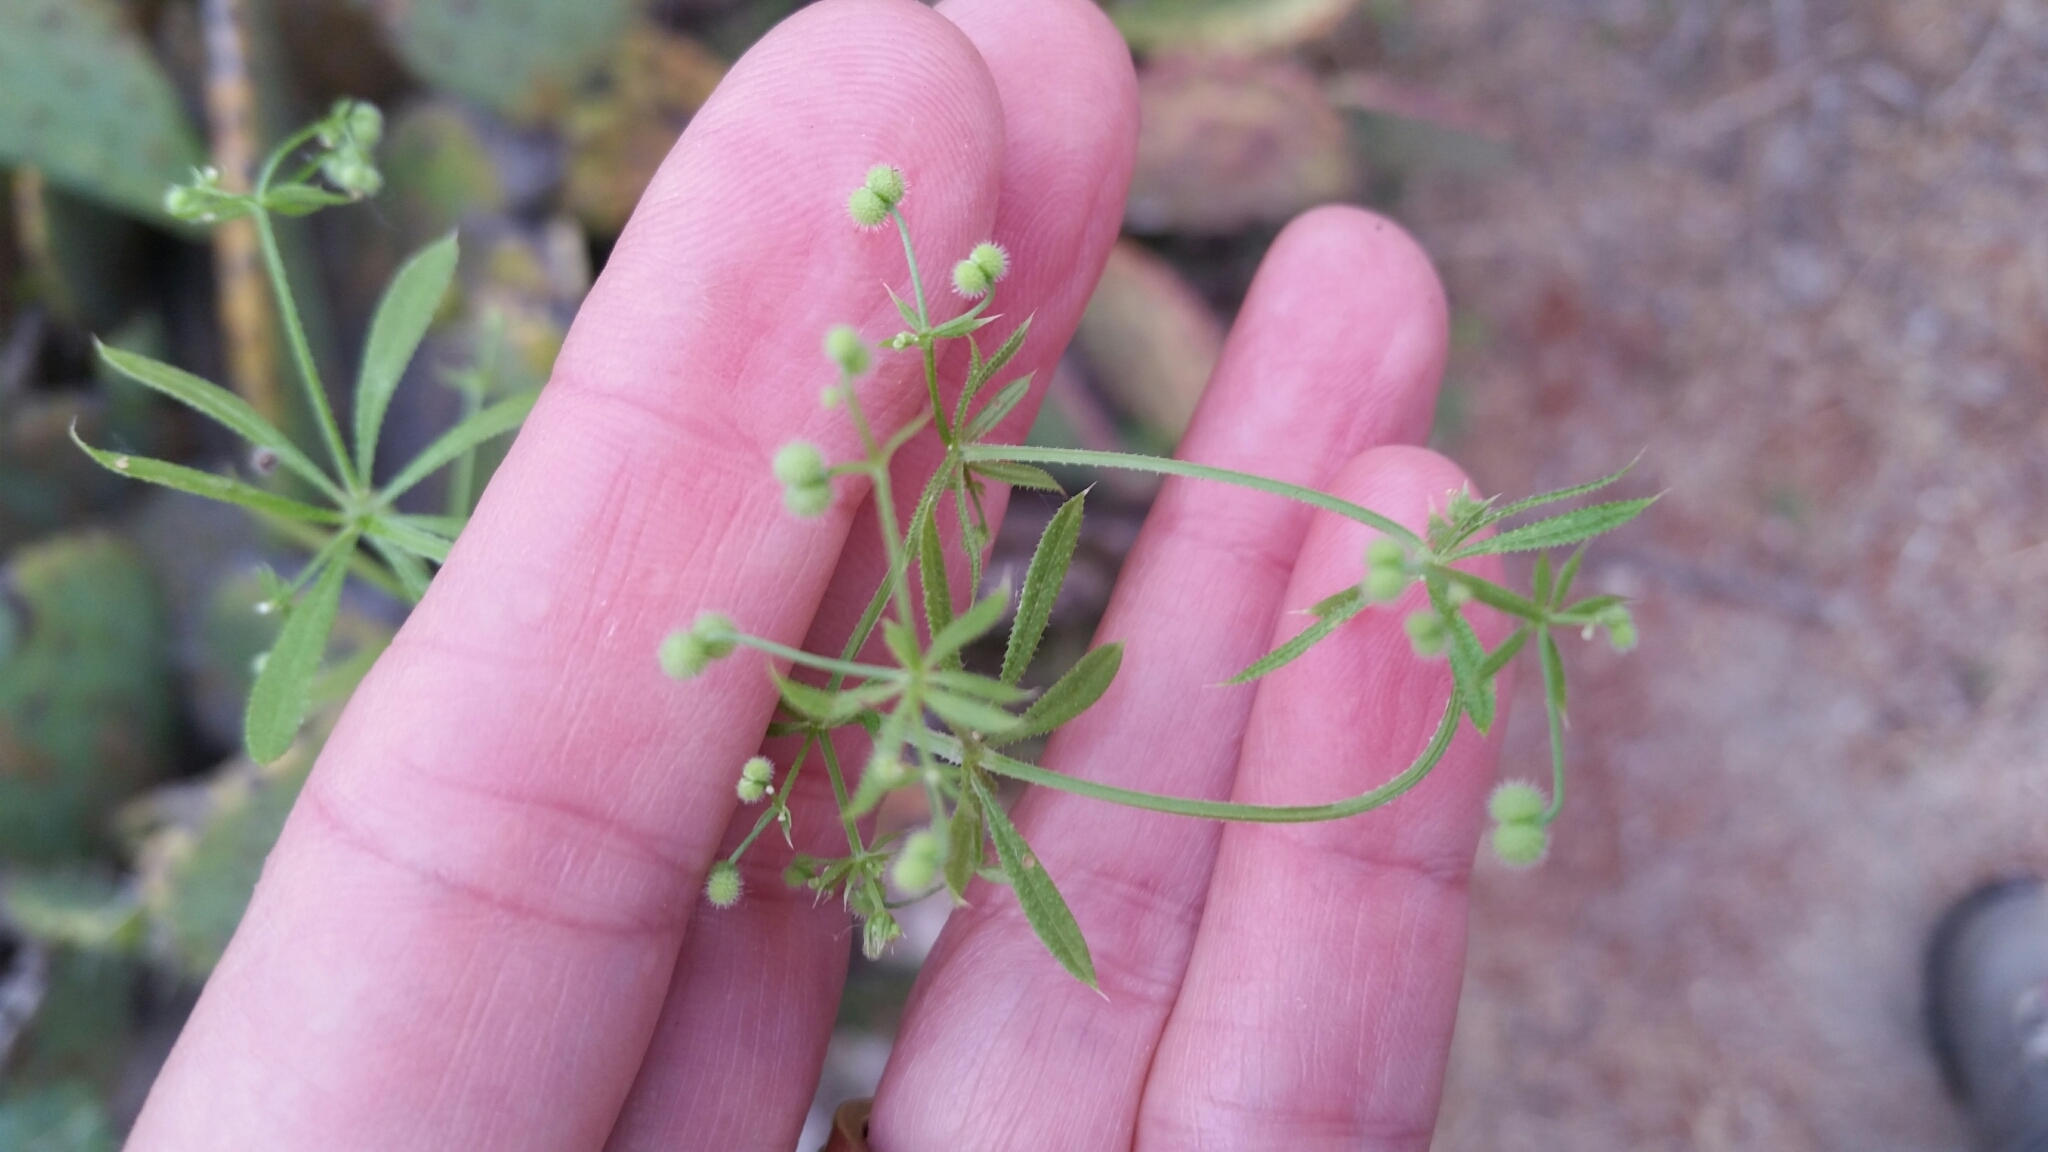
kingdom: Plantae
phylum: Tracheophyta
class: Magnoliopsida
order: Gentianales
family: Rubiaceae
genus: Galium
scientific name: Galium aparine
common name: Cleavers
